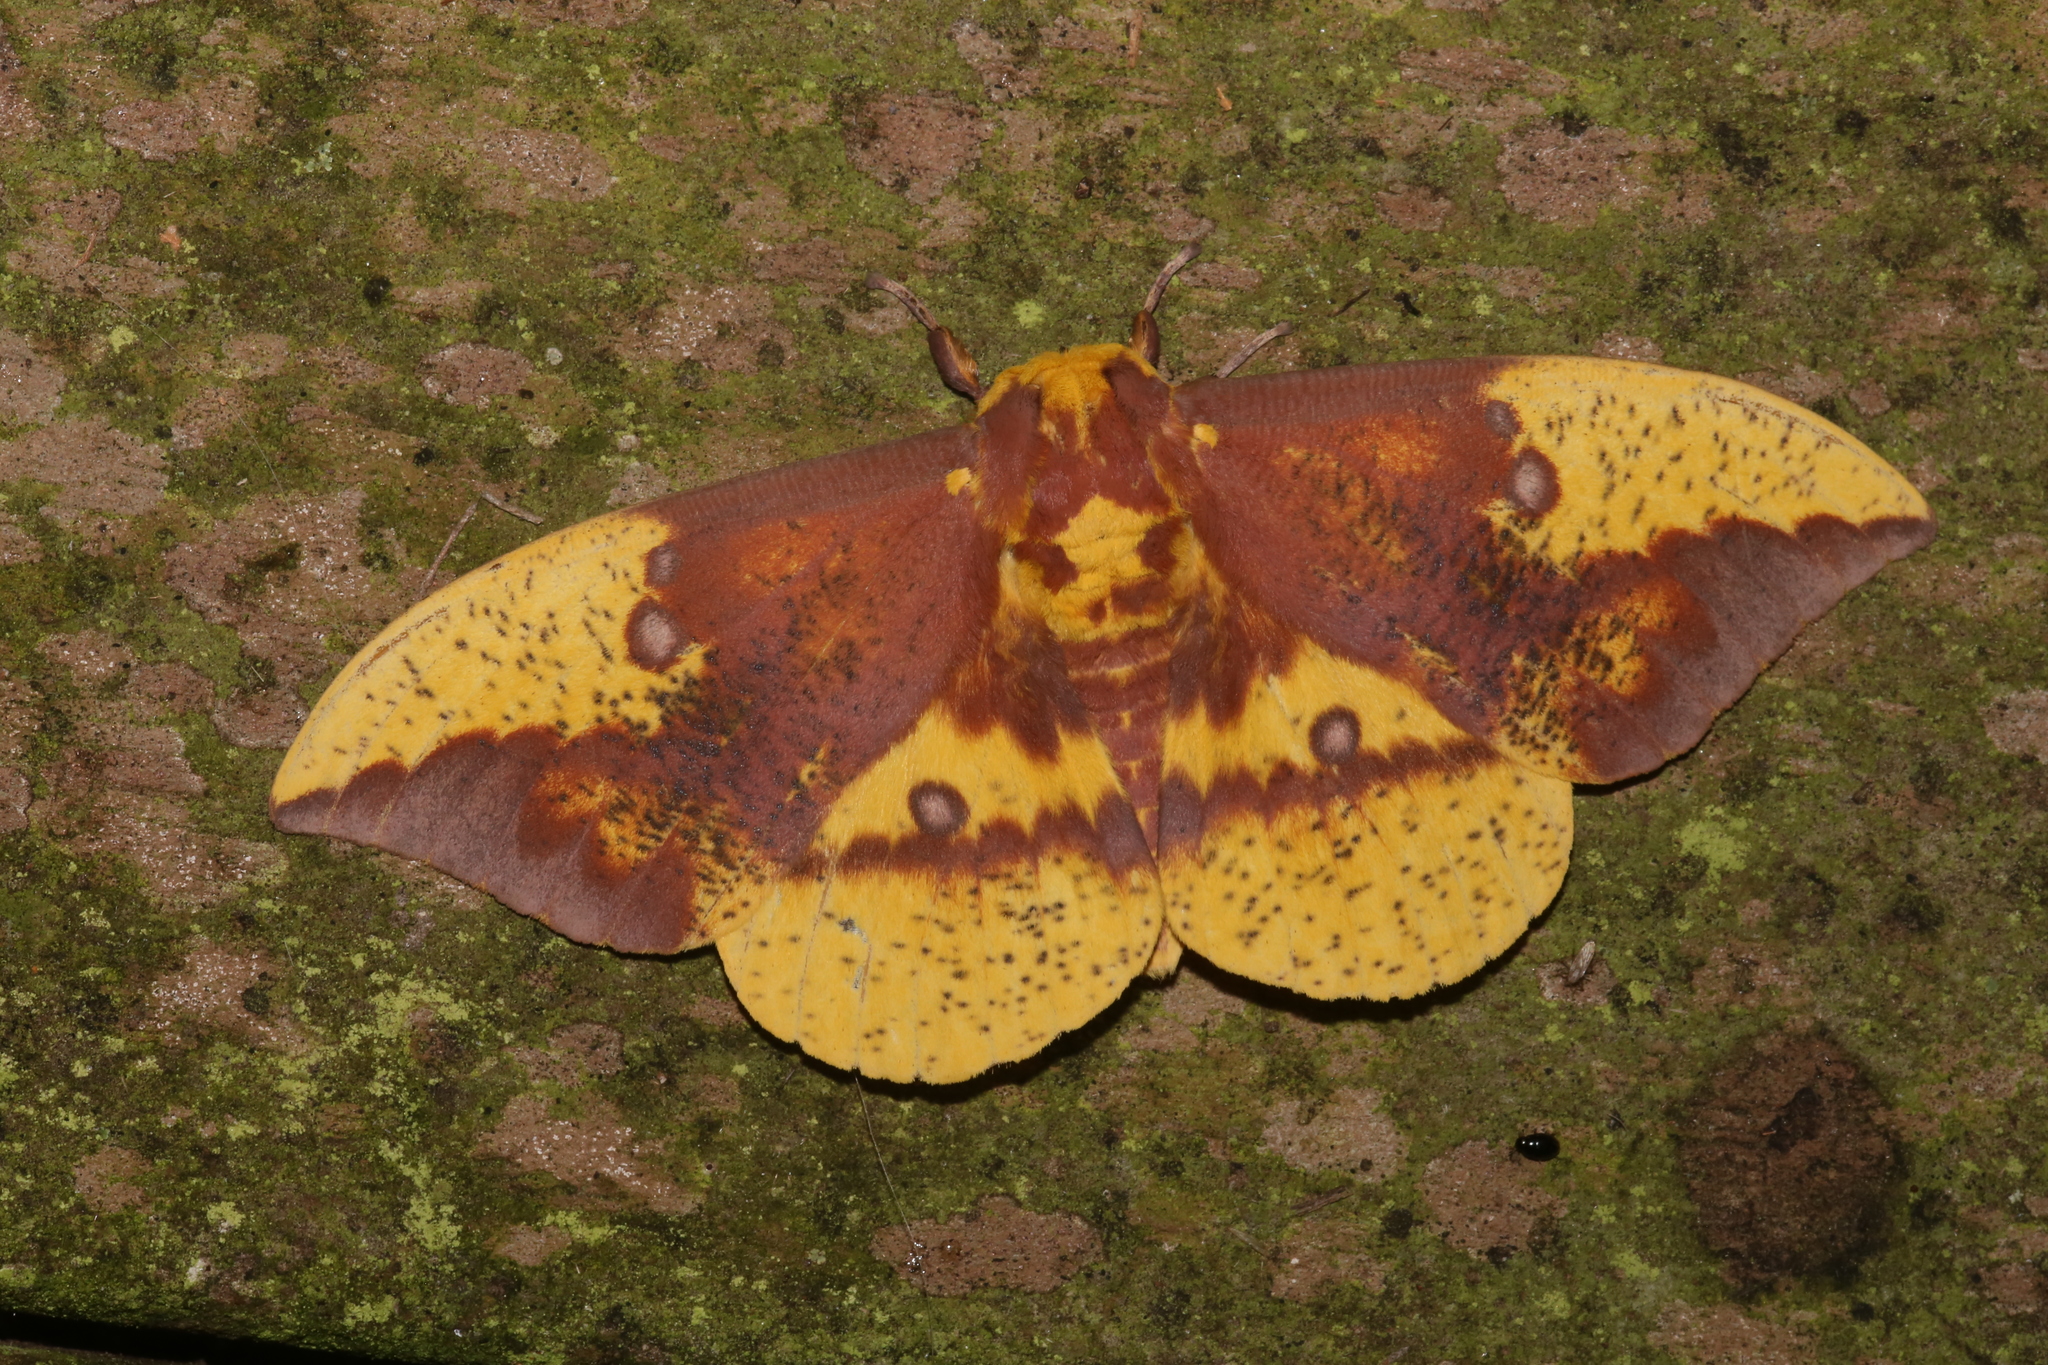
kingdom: Animalia
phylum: Arthropoda
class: Insecta
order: Lepidoptera
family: Saturniidae
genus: Eacles
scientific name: Eacles imperialis
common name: Imperial moth
